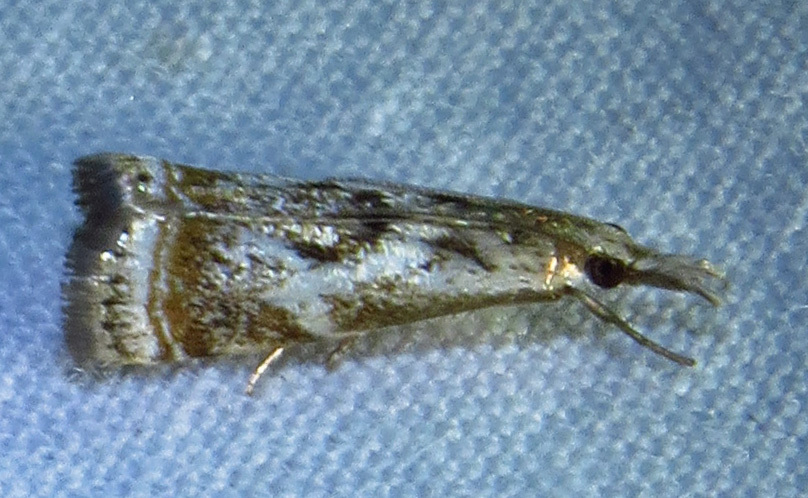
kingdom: Animalia
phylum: Arthropoda
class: Insecta
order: Lepidoptera
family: Crambidae
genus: Microcrambus
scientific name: Microcrambus elegans
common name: Elegant grass-veneer
